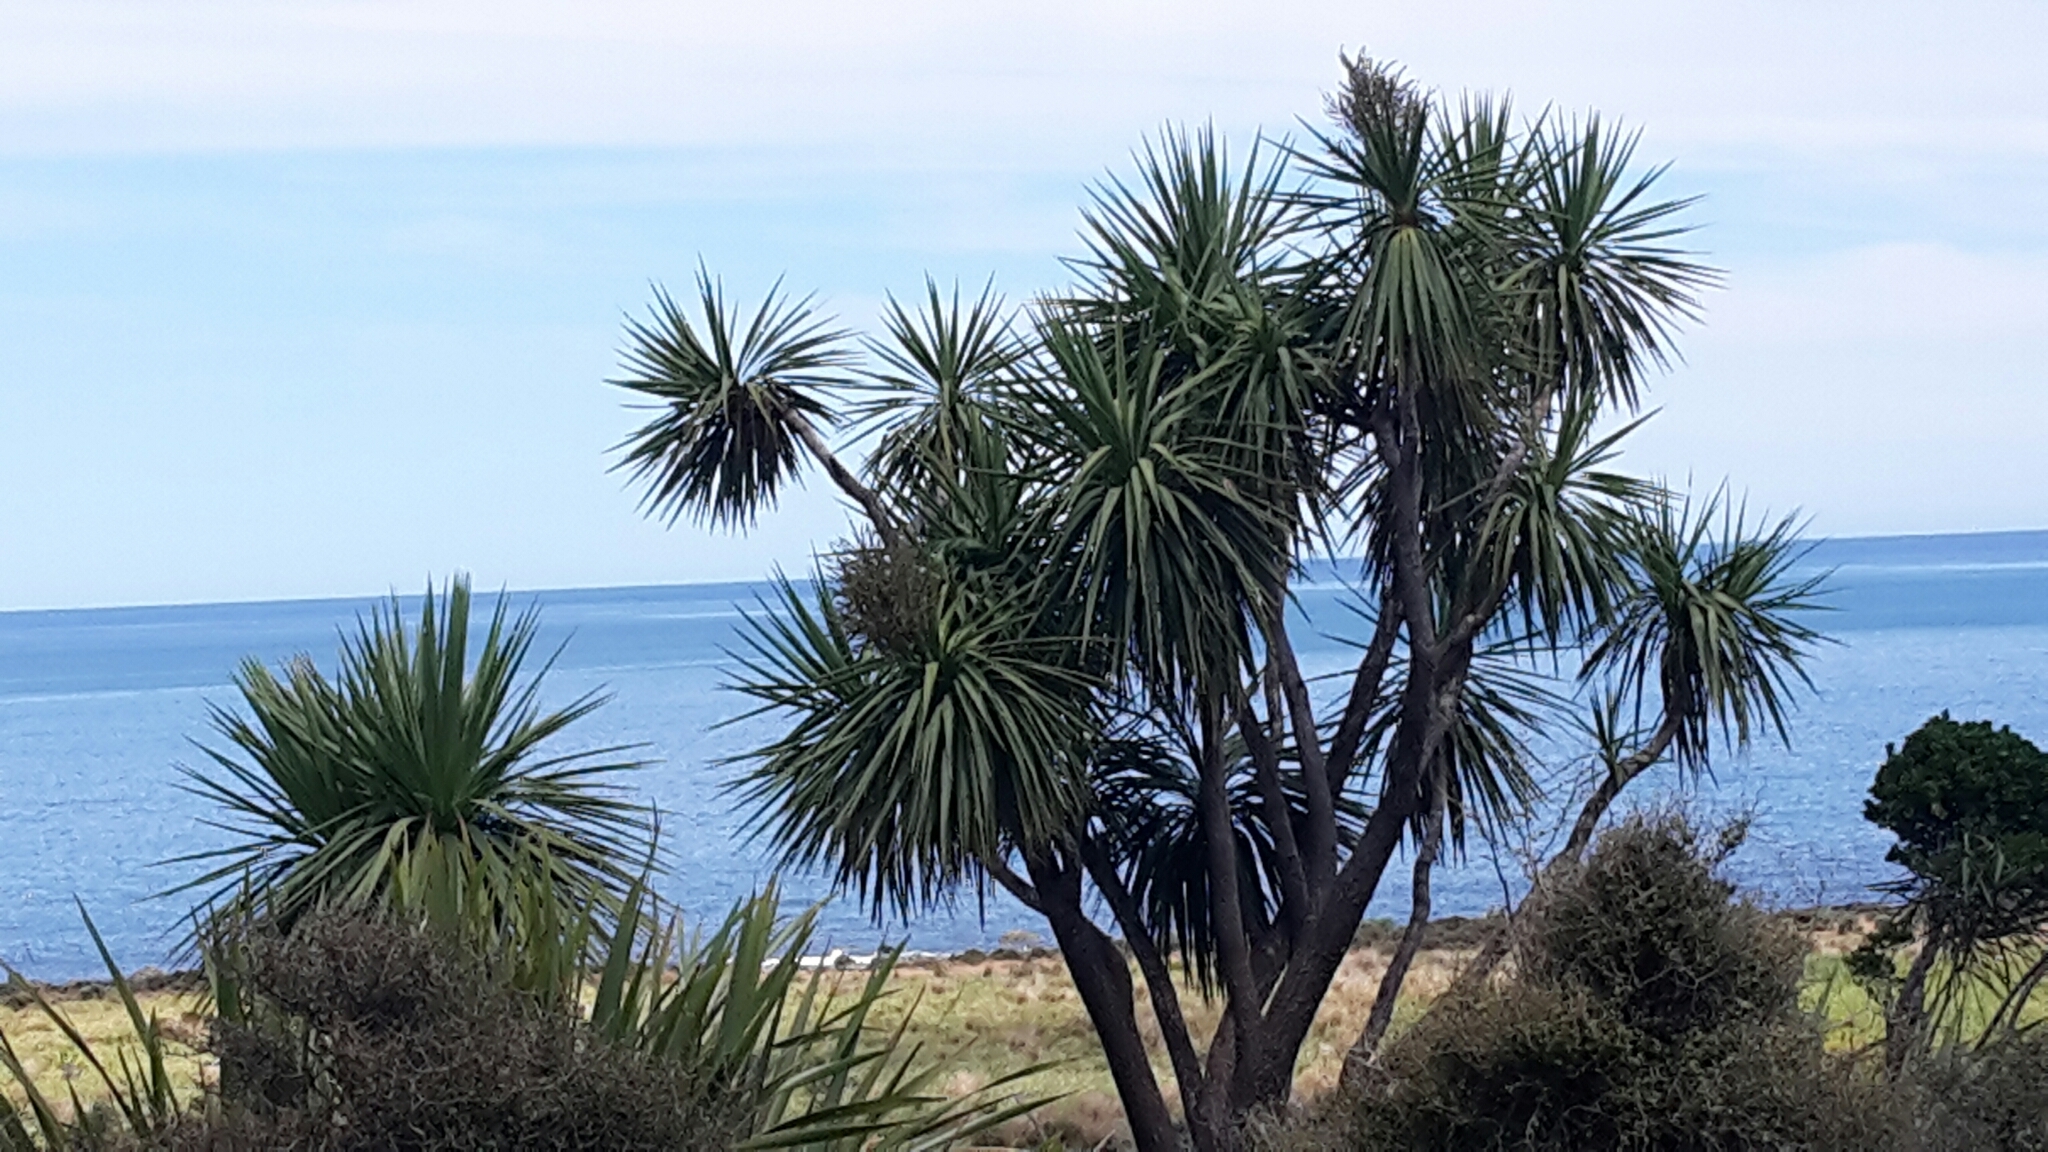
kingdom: Plantae
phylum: Tracheophyta
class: Liliopsida
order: Asparagales
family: Asparagaceae
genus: Cordyline
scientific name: Cordyline australis
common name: Cabbage-palm
